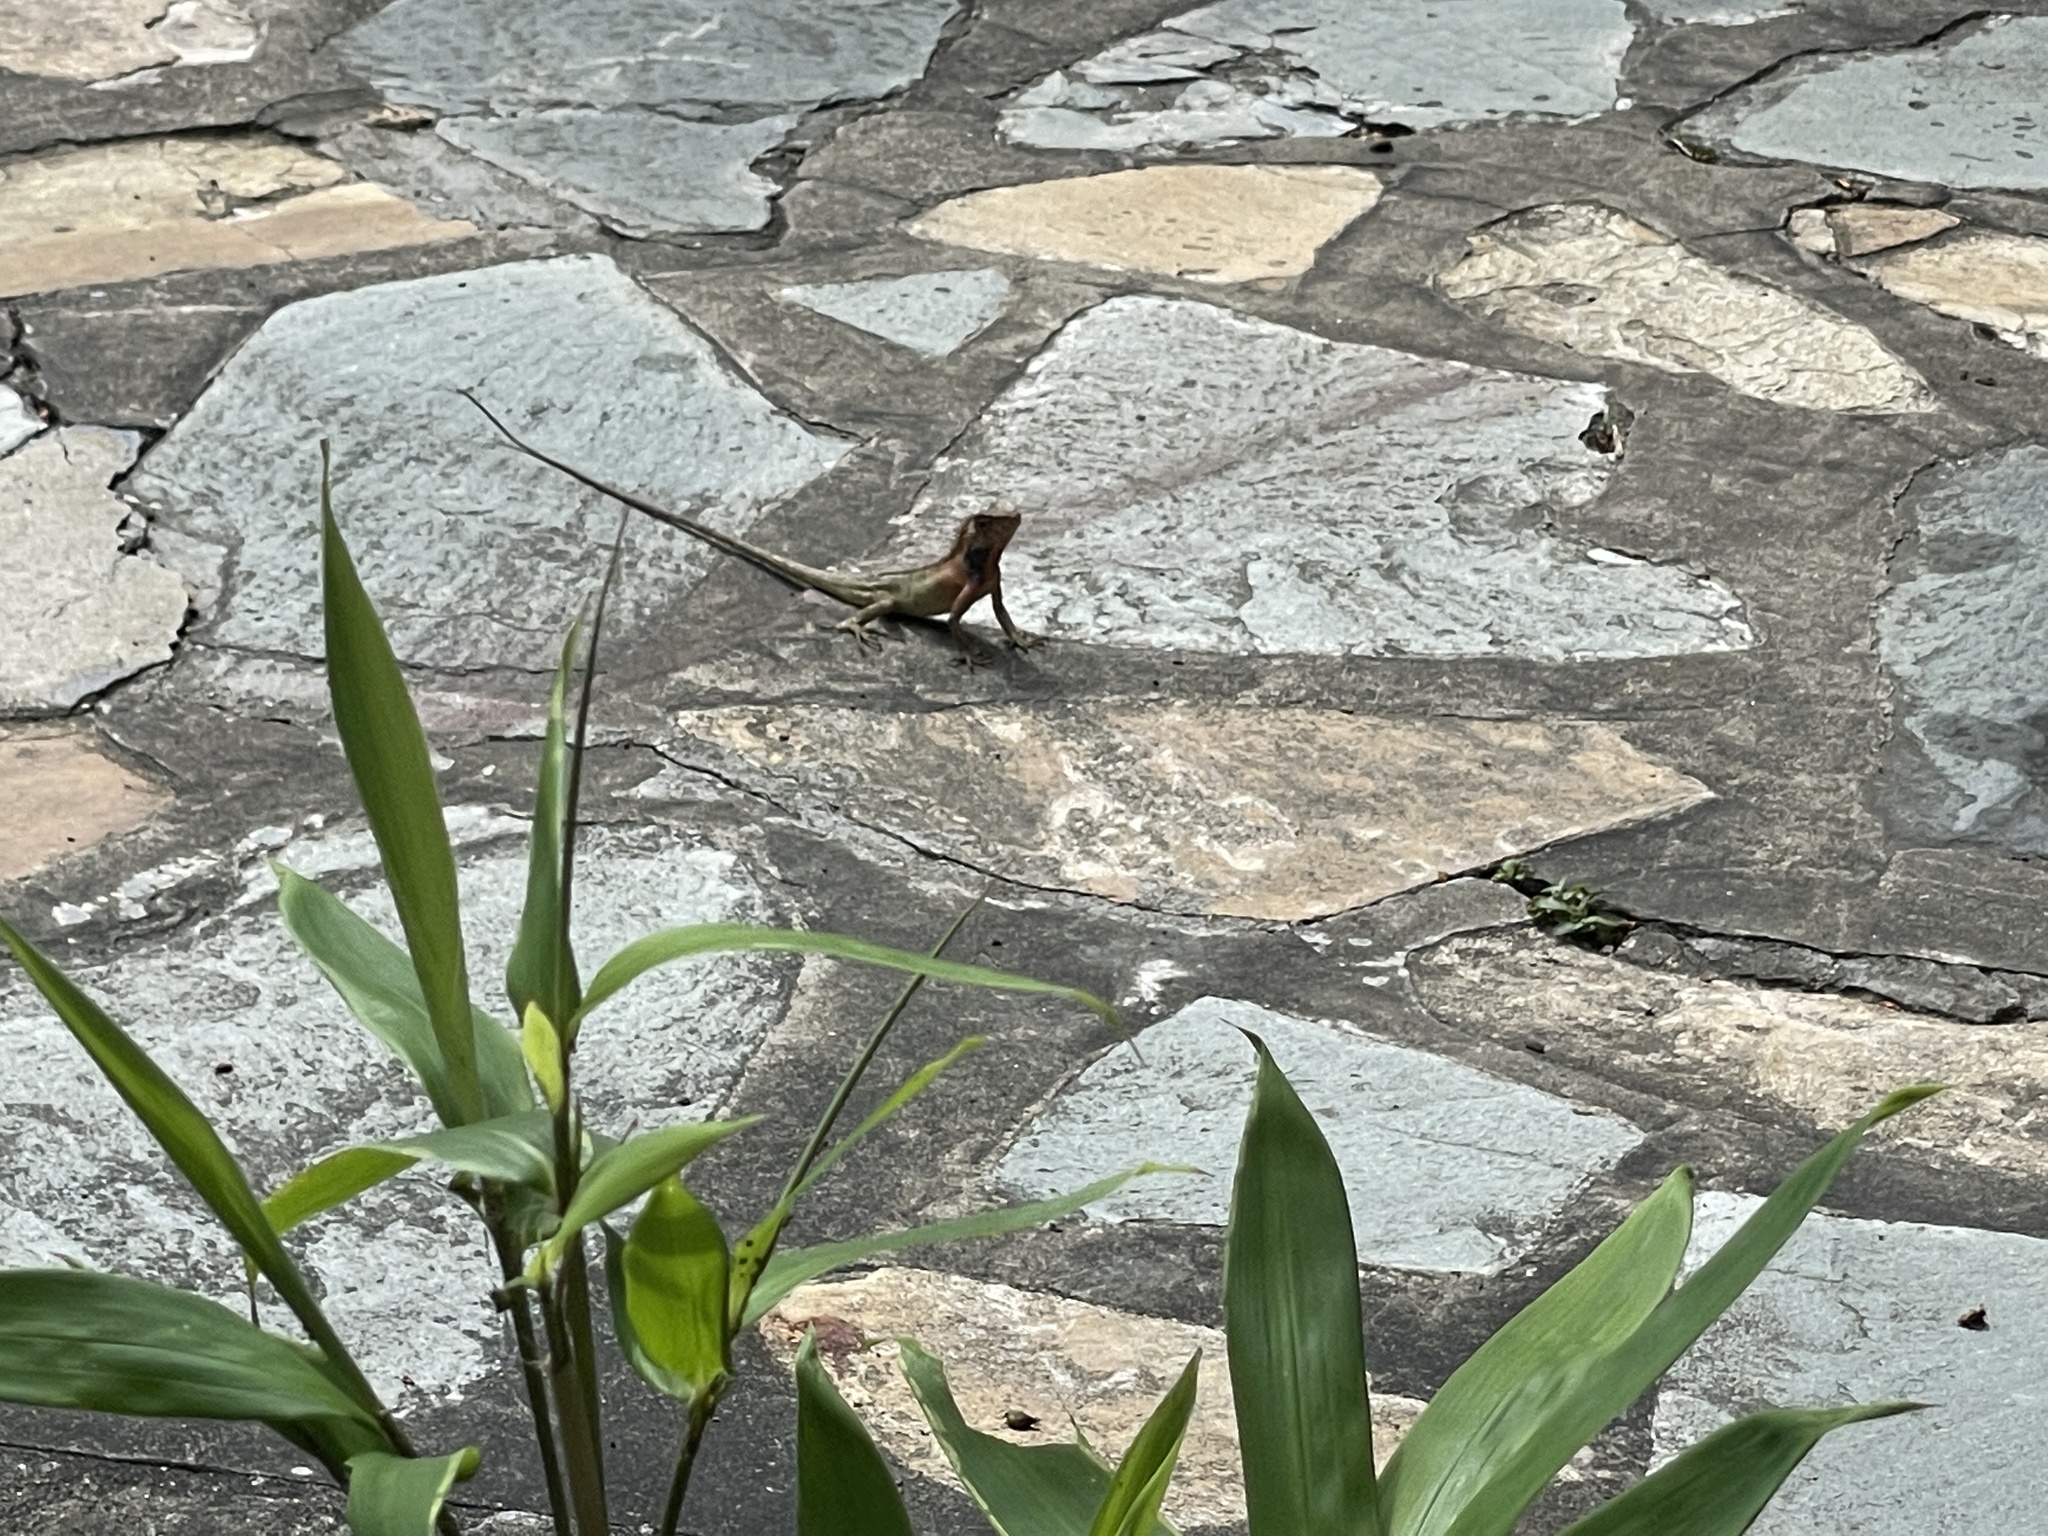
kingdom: Animalia
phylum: Chordata
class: Squamata
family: Agamidae
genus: Calotes
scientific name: Calotes versicolor
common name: Oriental garden lizard
